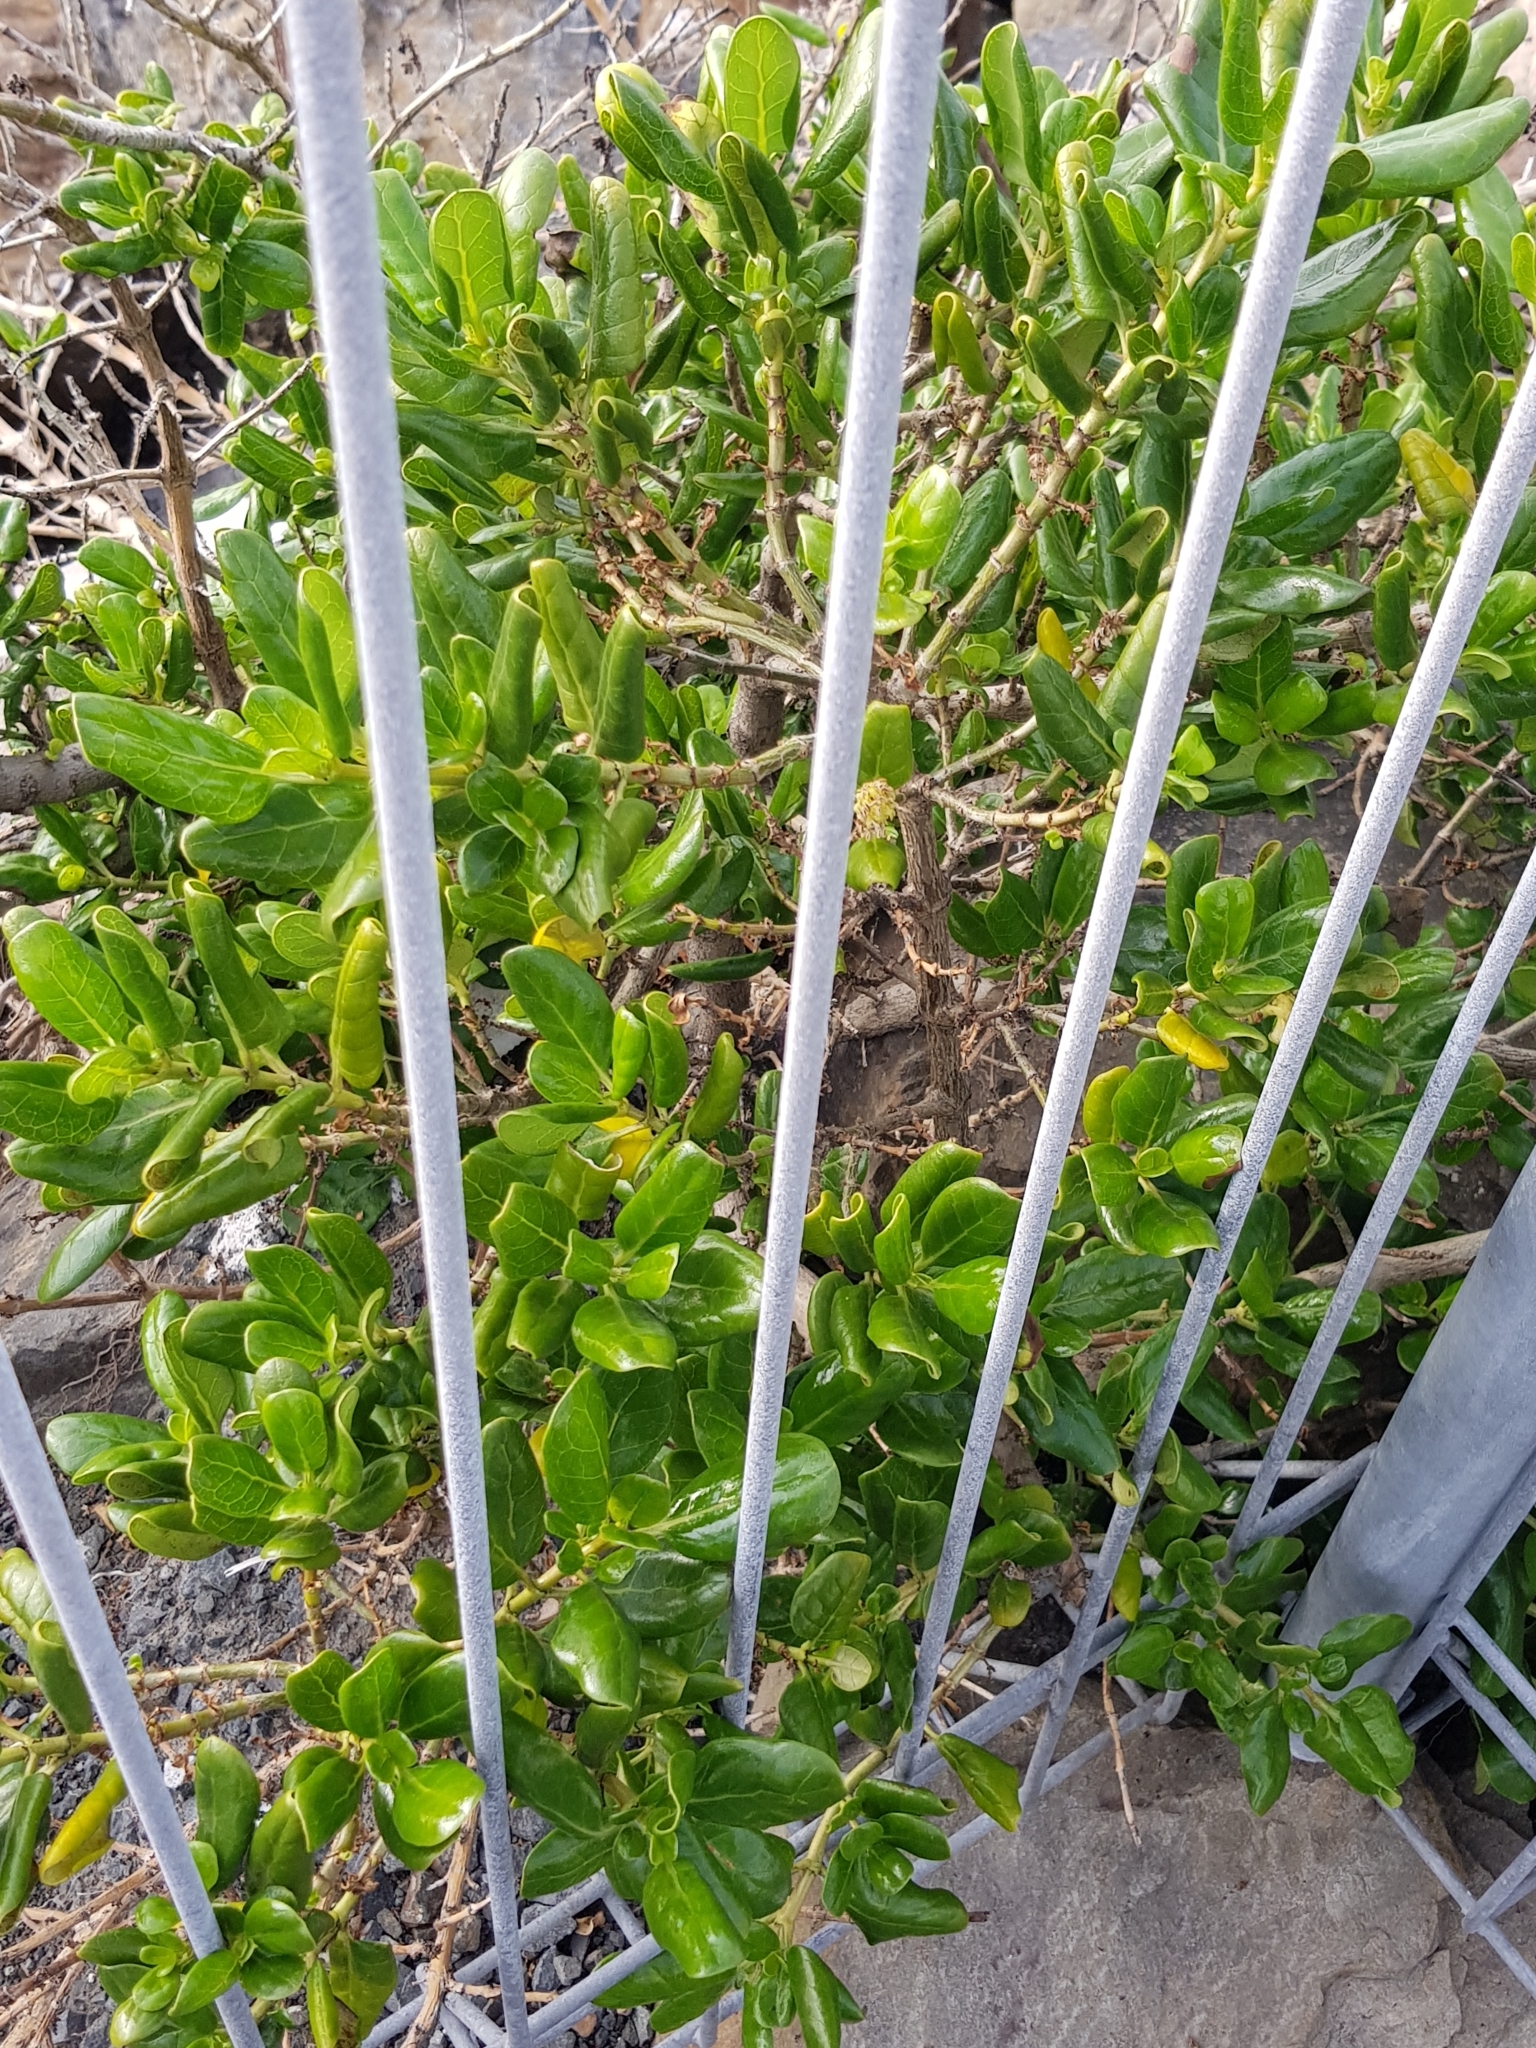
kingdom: Plantae
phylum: Tracheophyta
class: Magnoliopsida
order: Gentianales
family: Rubiaceae
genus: Coprosma
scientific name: Coprosma repens
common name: Tree bedstraw
